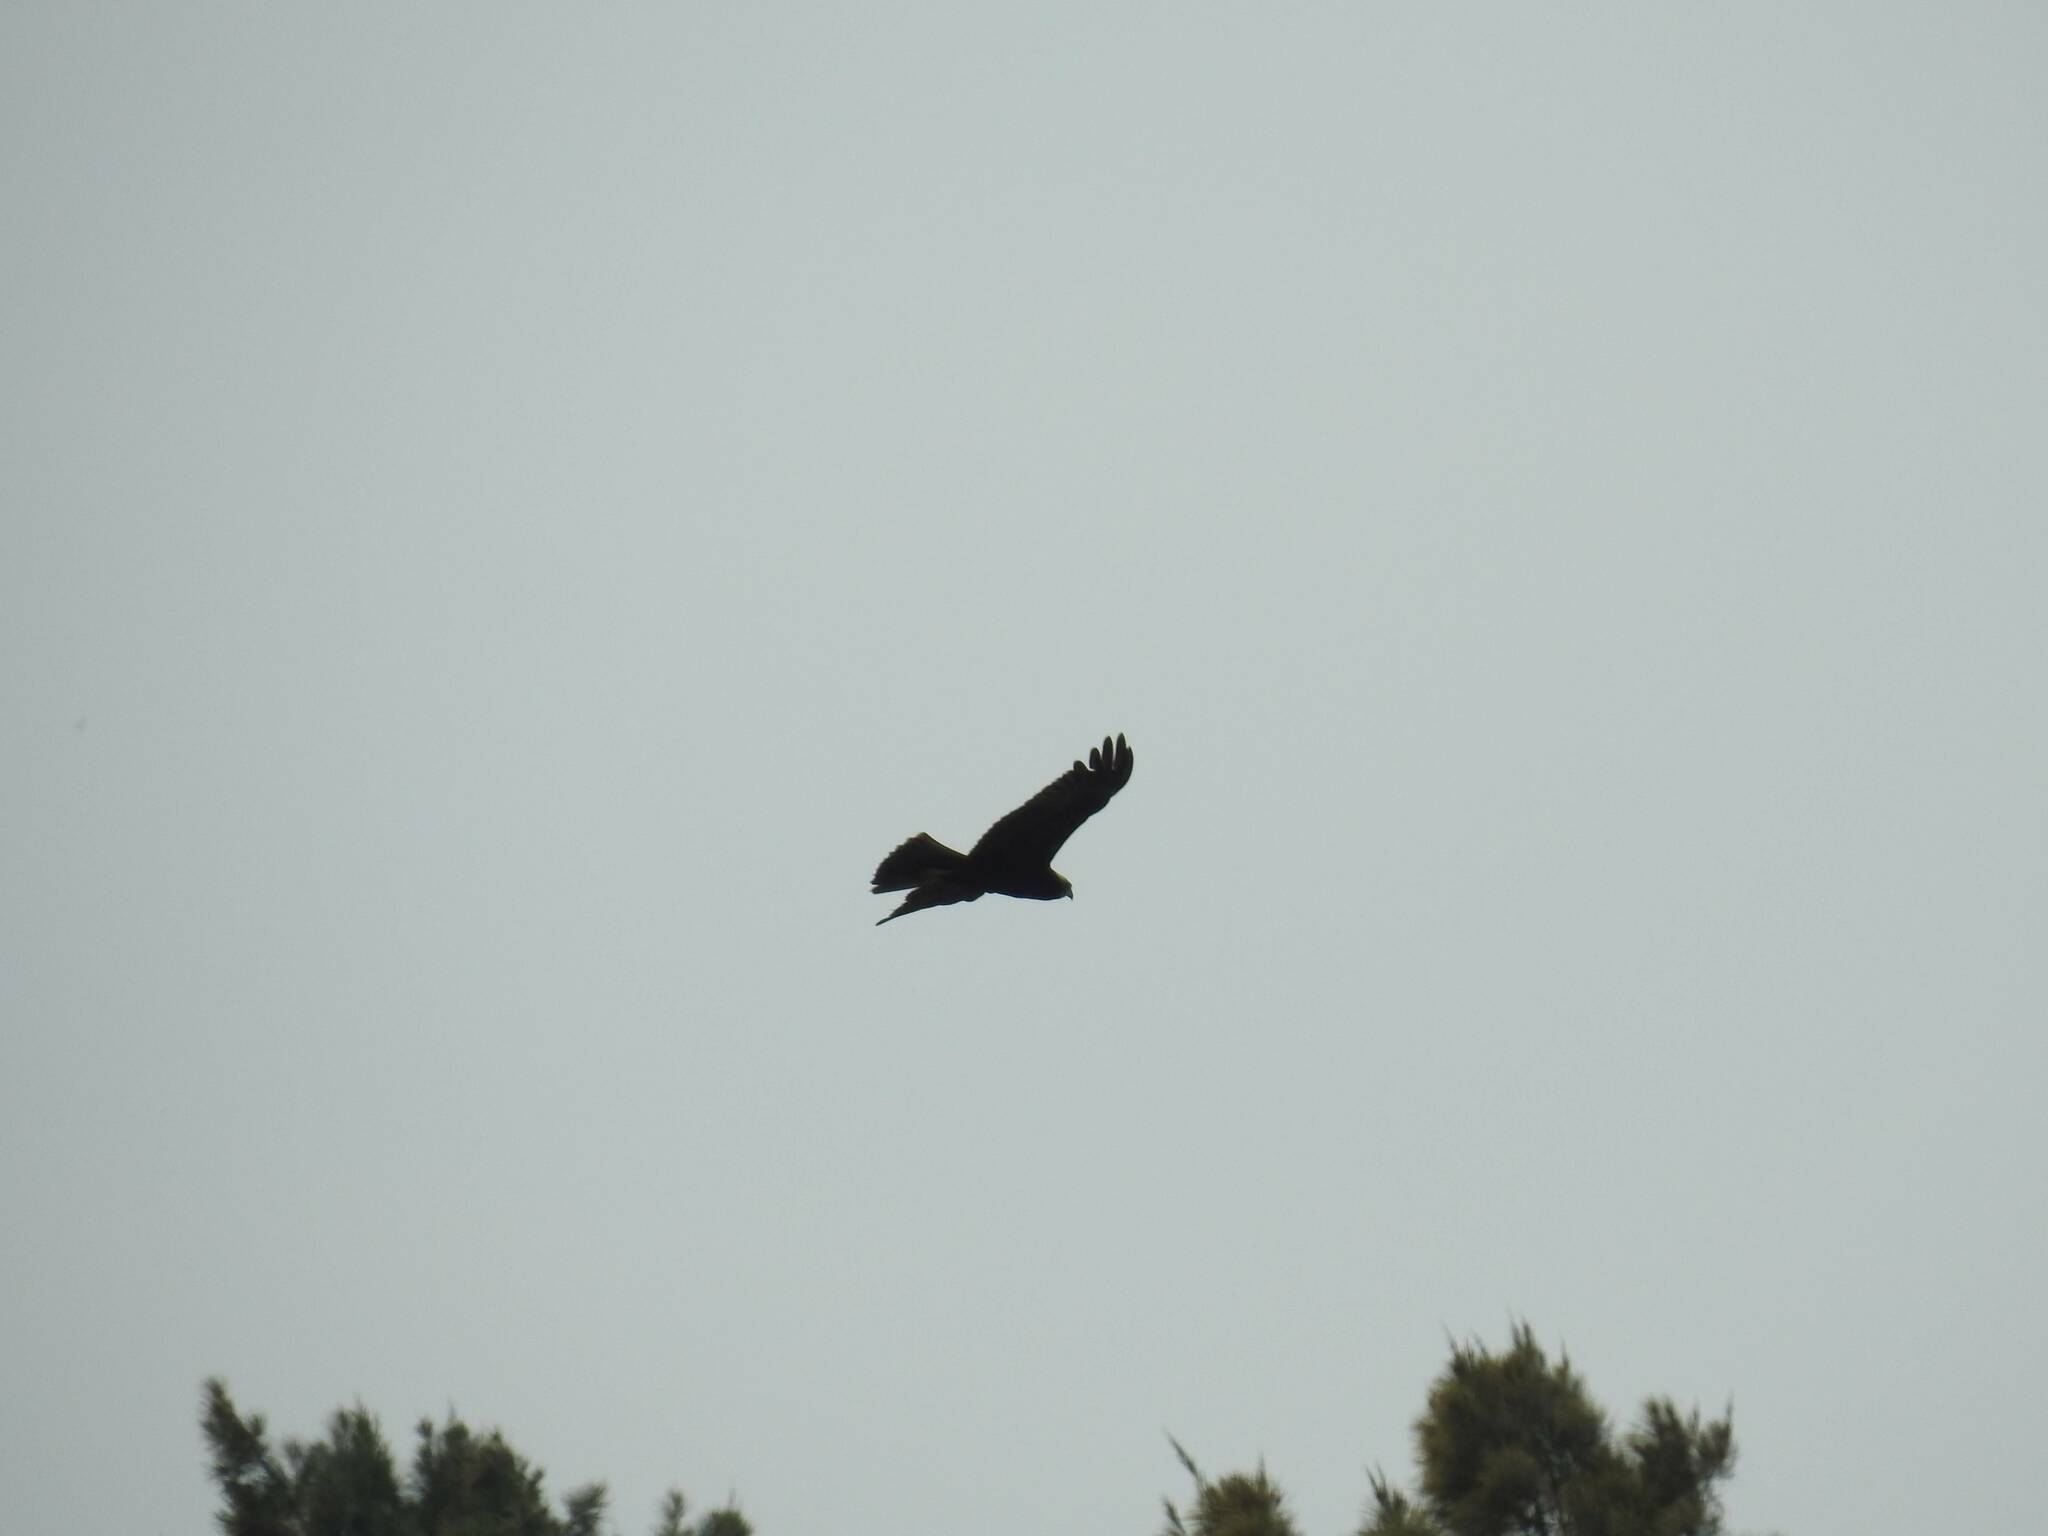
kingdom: Animalia
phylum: Chordata
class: Aves
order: Accipitriformes
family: Accipitridae
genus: Circus
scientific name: Circus aeruginosus
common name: Western marsh harrier
